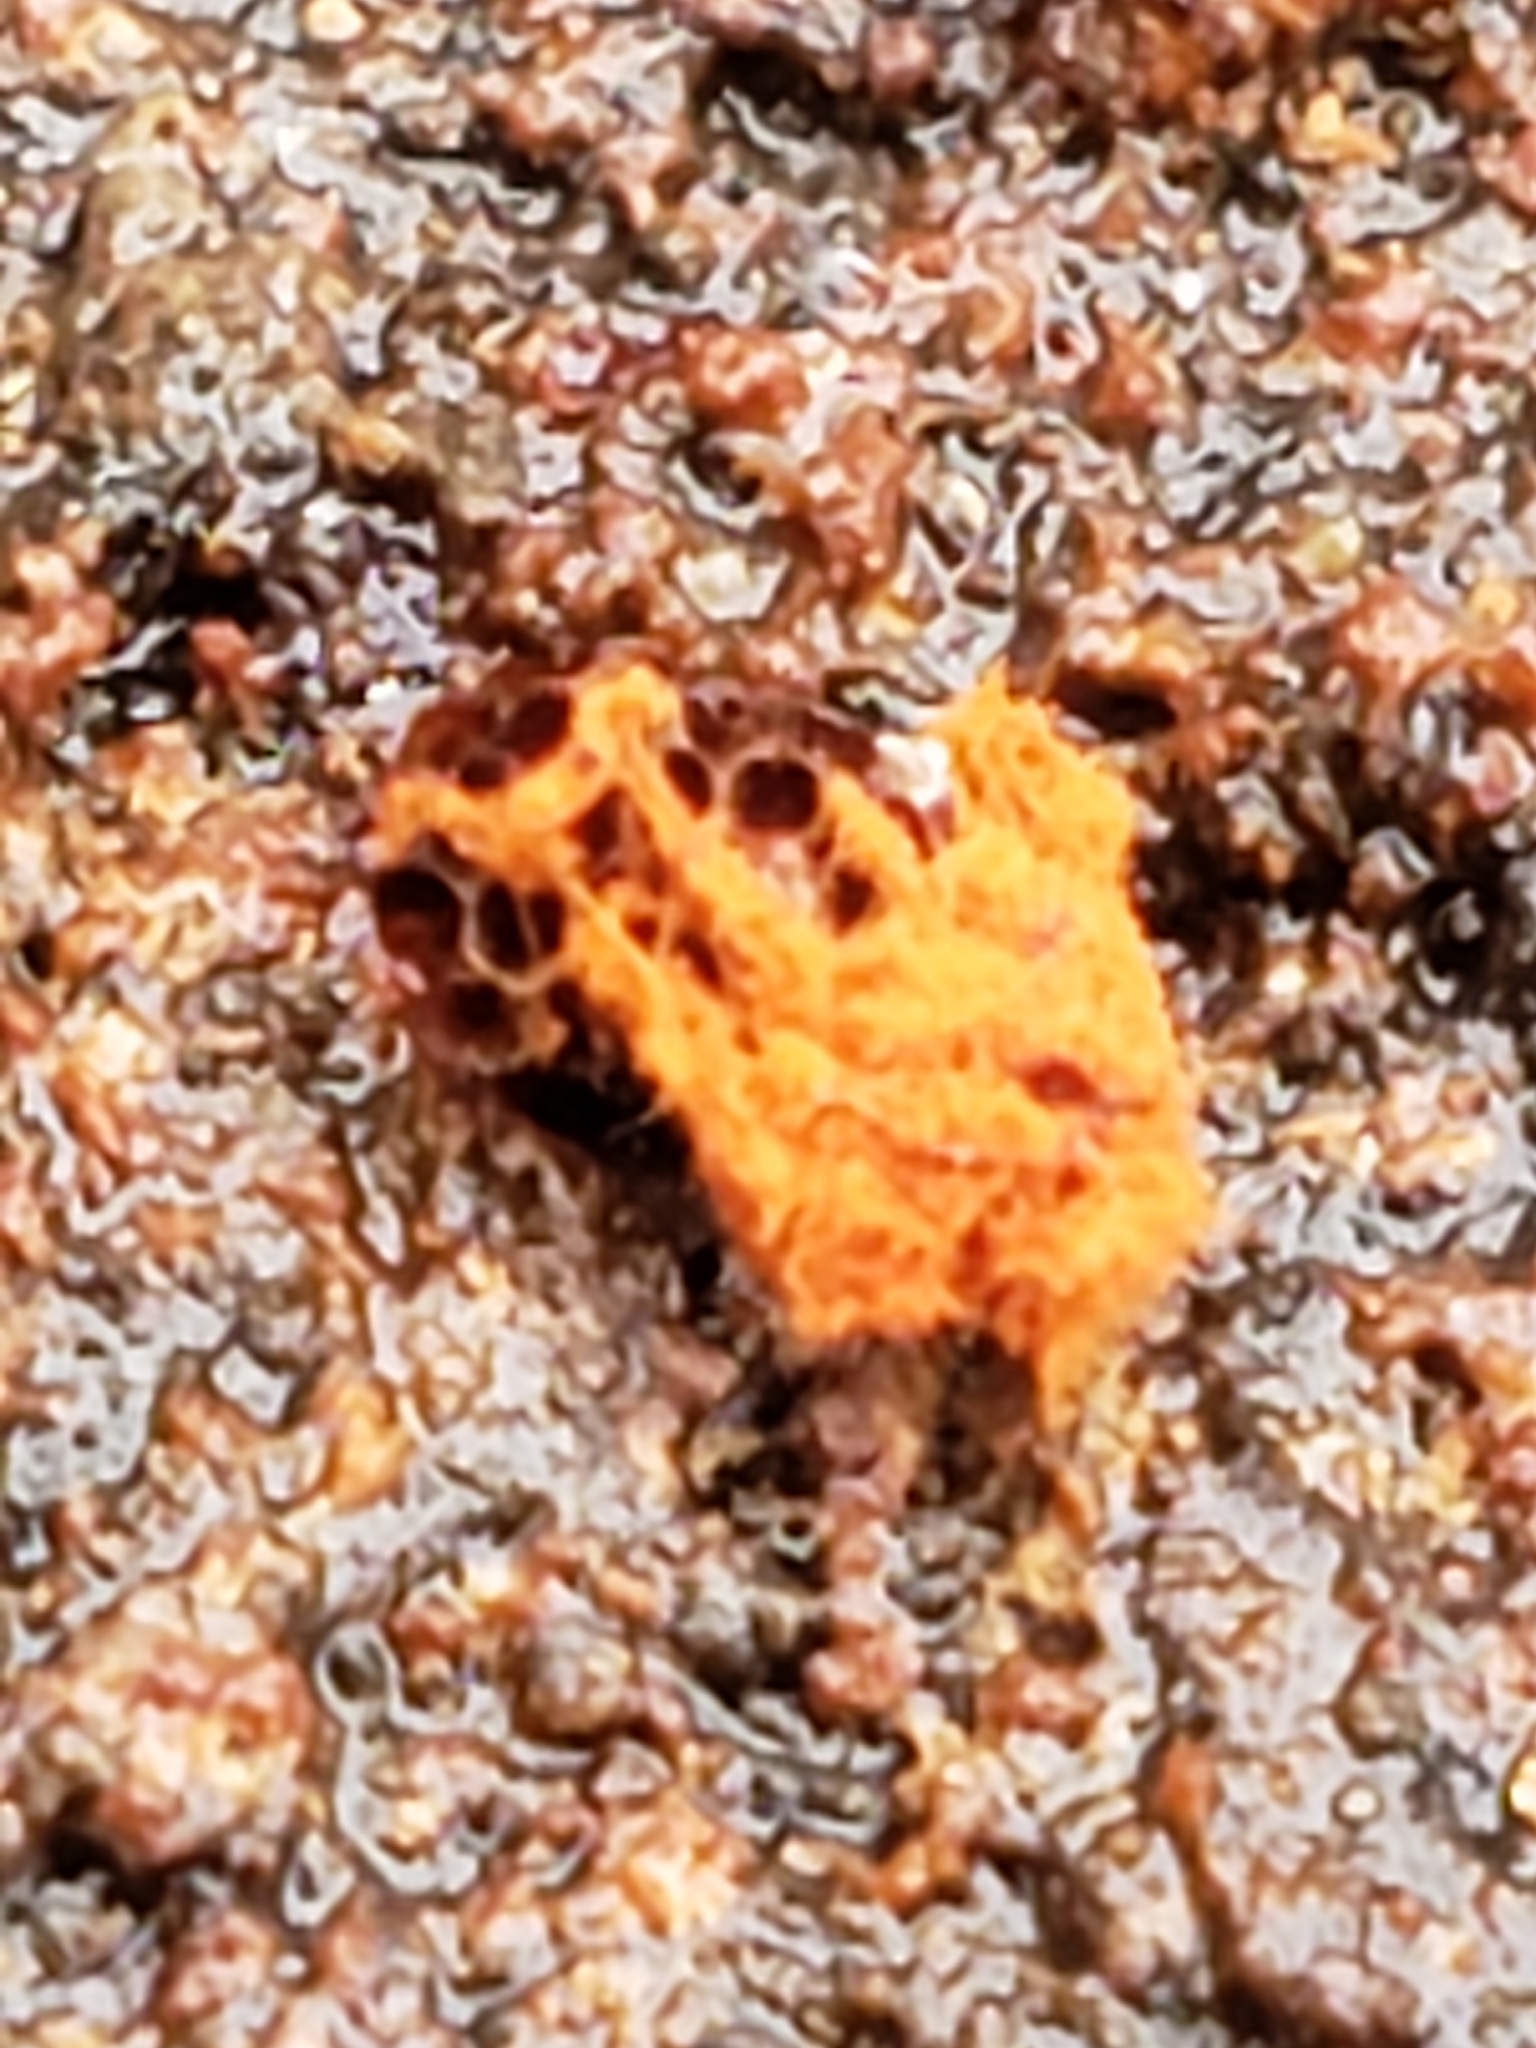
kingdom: Protozoa
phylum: Mycetozoa
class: Myxomycetes
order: Trichiales
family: Trichiaceae
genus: Metatrichia
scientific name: Metatrichia vesparia
